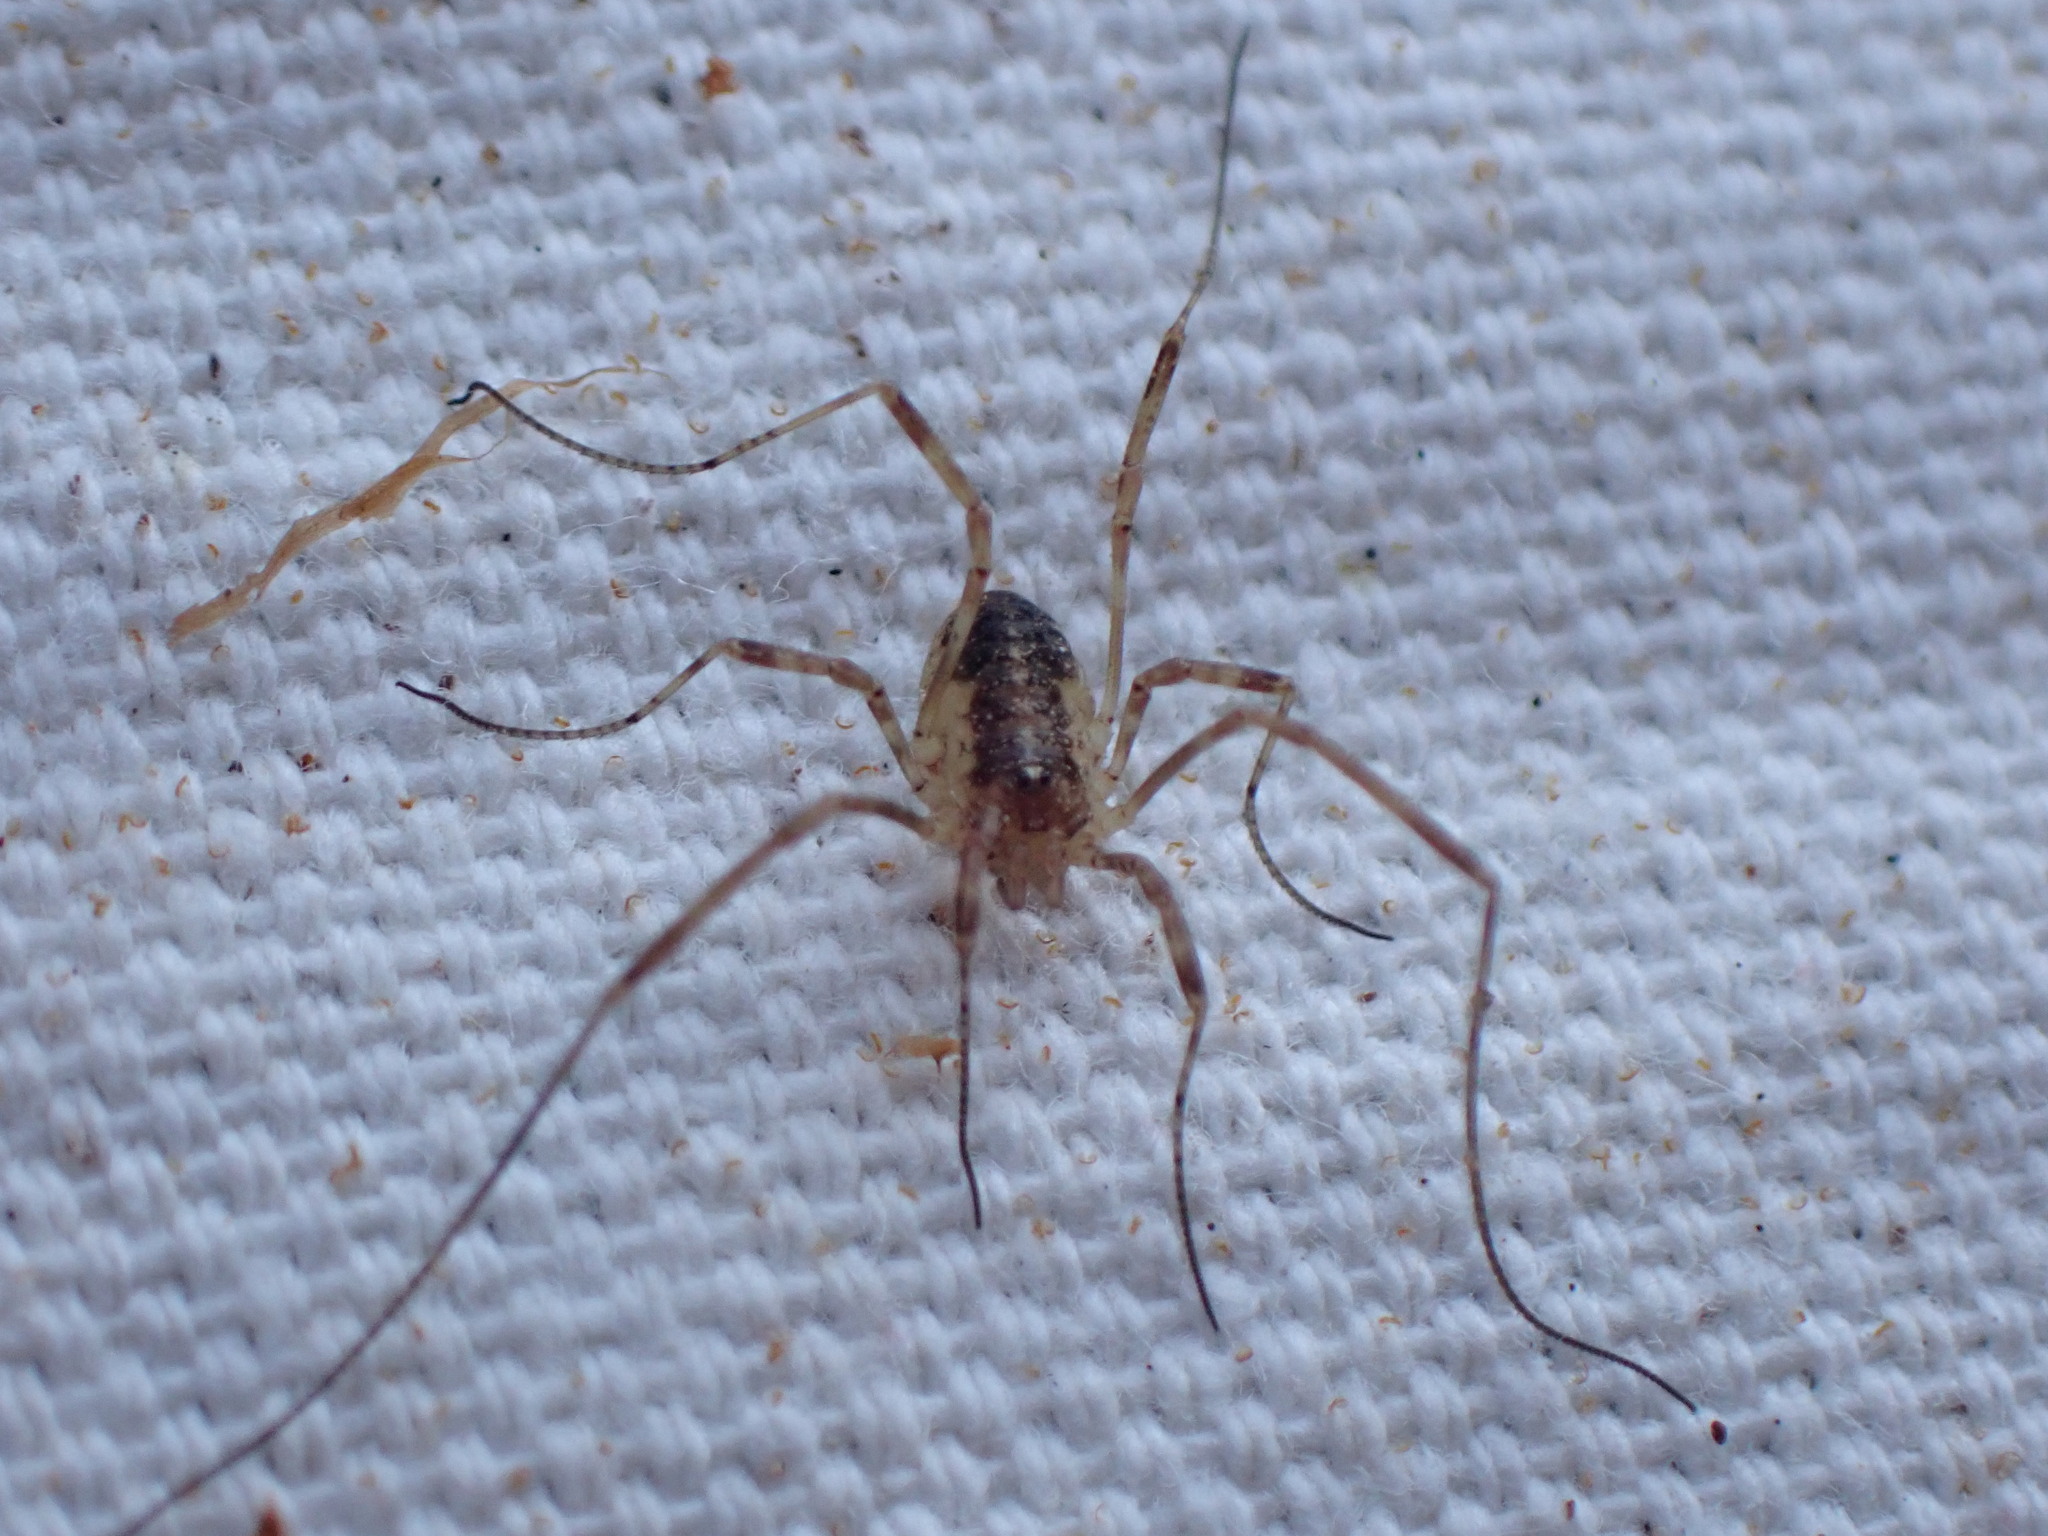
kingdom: Animalia
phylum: Arthropoda
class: Arachnida
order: Opiliones
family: Phalangiidae
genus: Paroligolophus
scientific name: Paroligolophus agrestis
